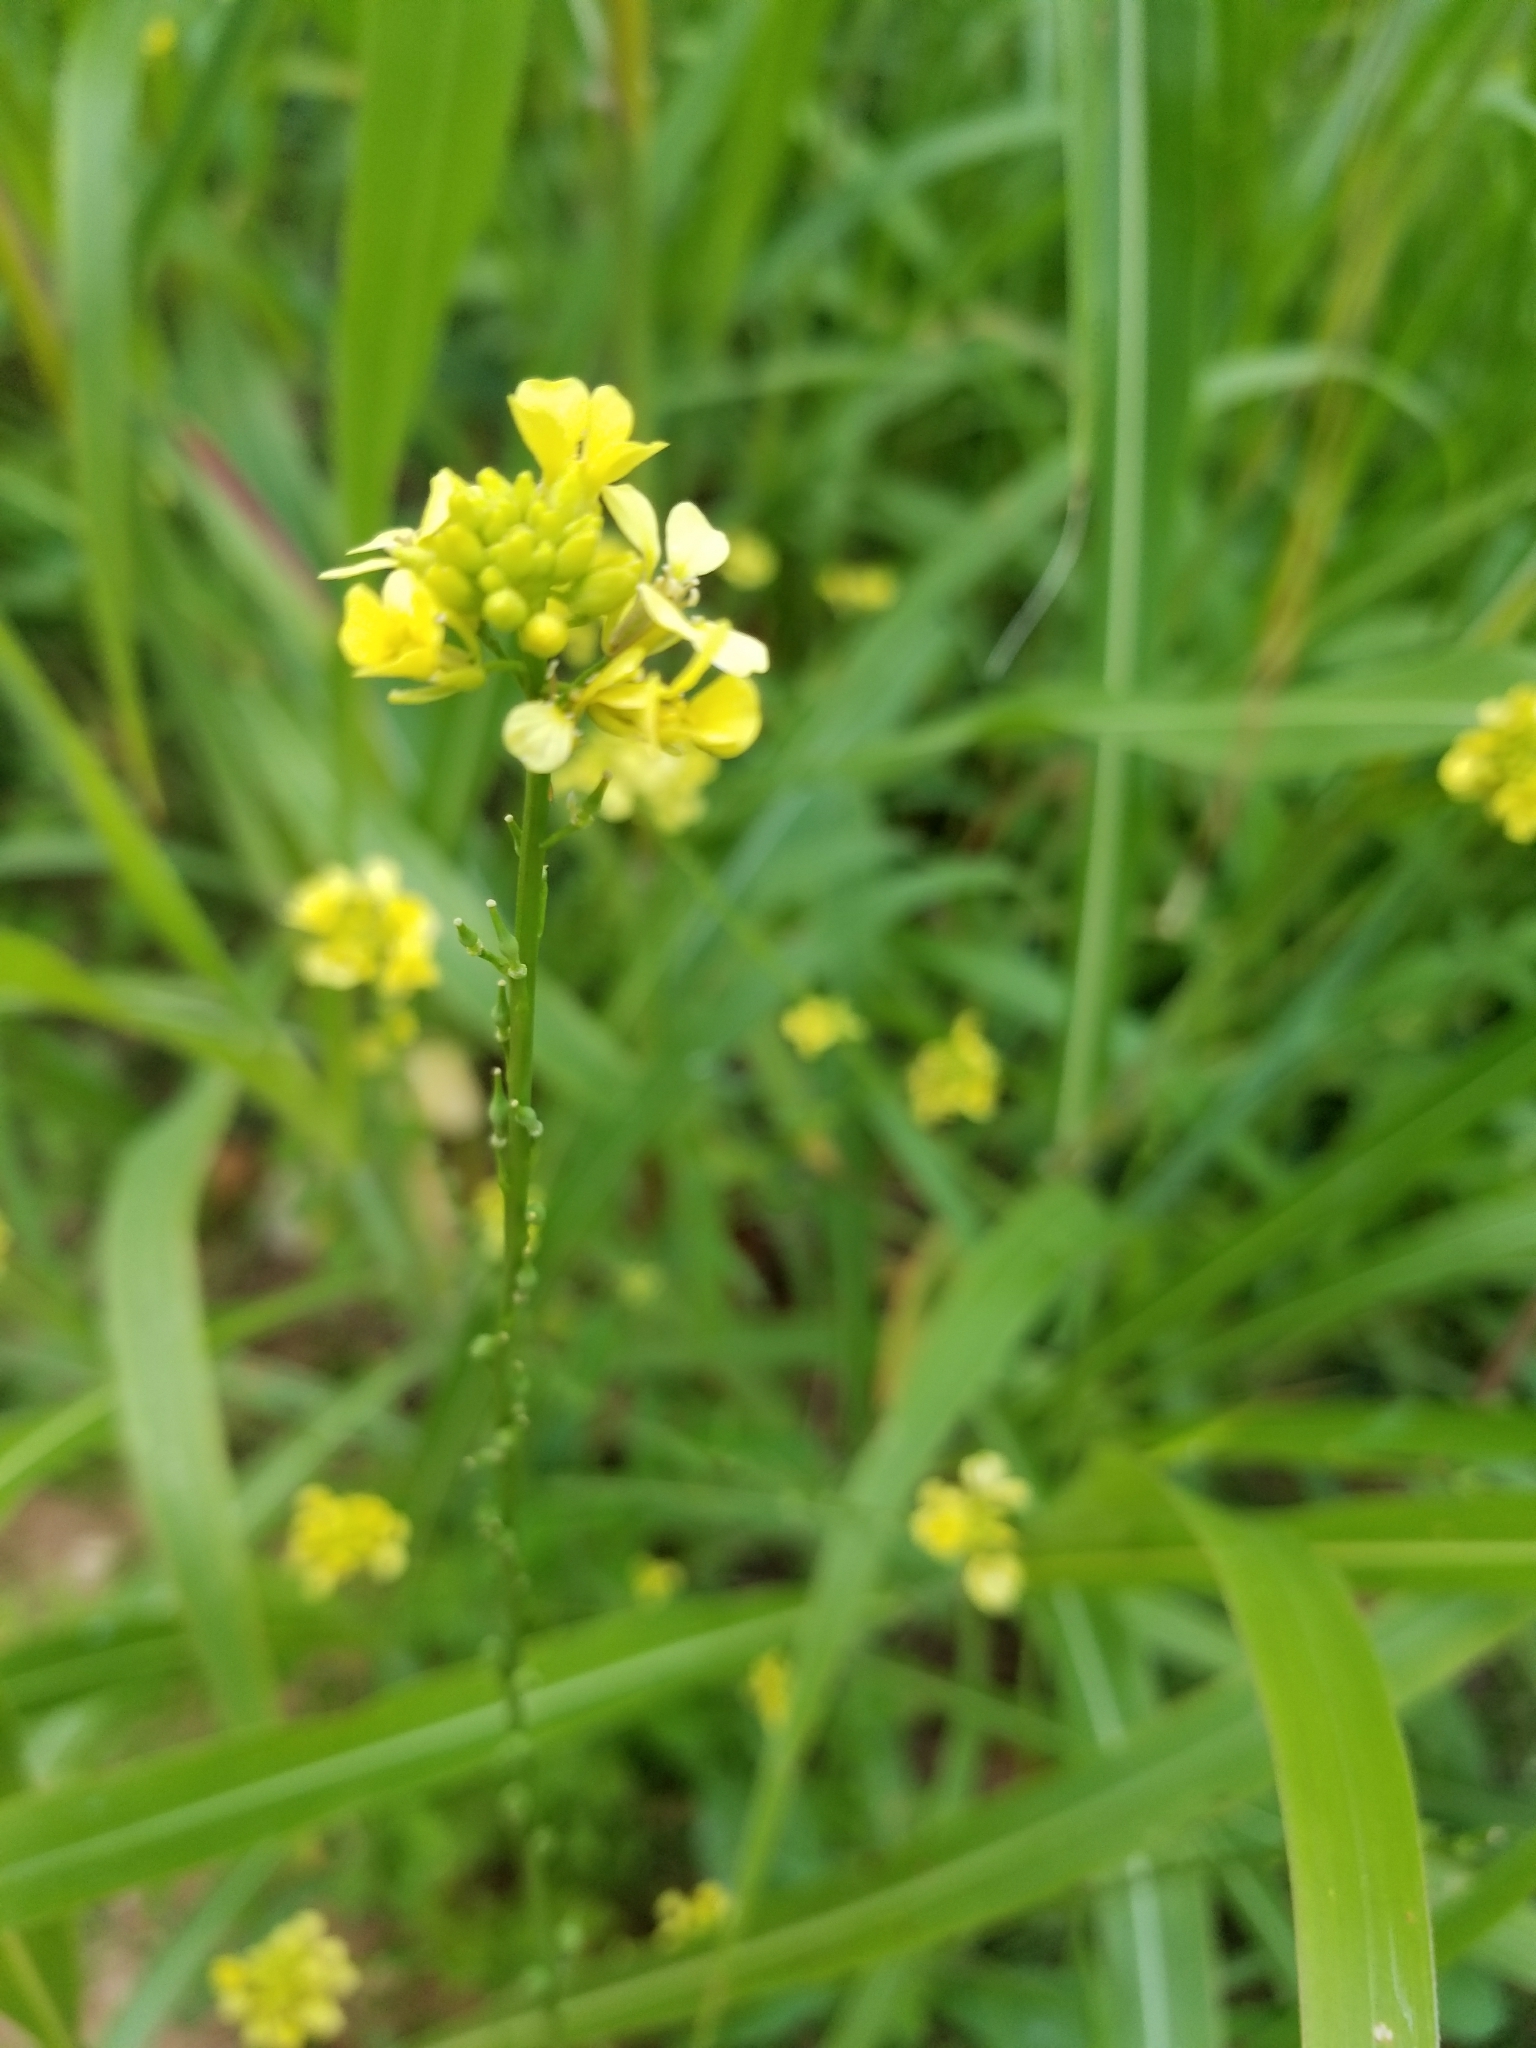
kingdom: Plantae
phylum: Tracheophyta
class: Magnoliopsida
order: Brassicales
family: Brassicaceae
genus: Rapistrum
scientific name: Rapistrum rugosum
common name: Annual bastardcabbage
